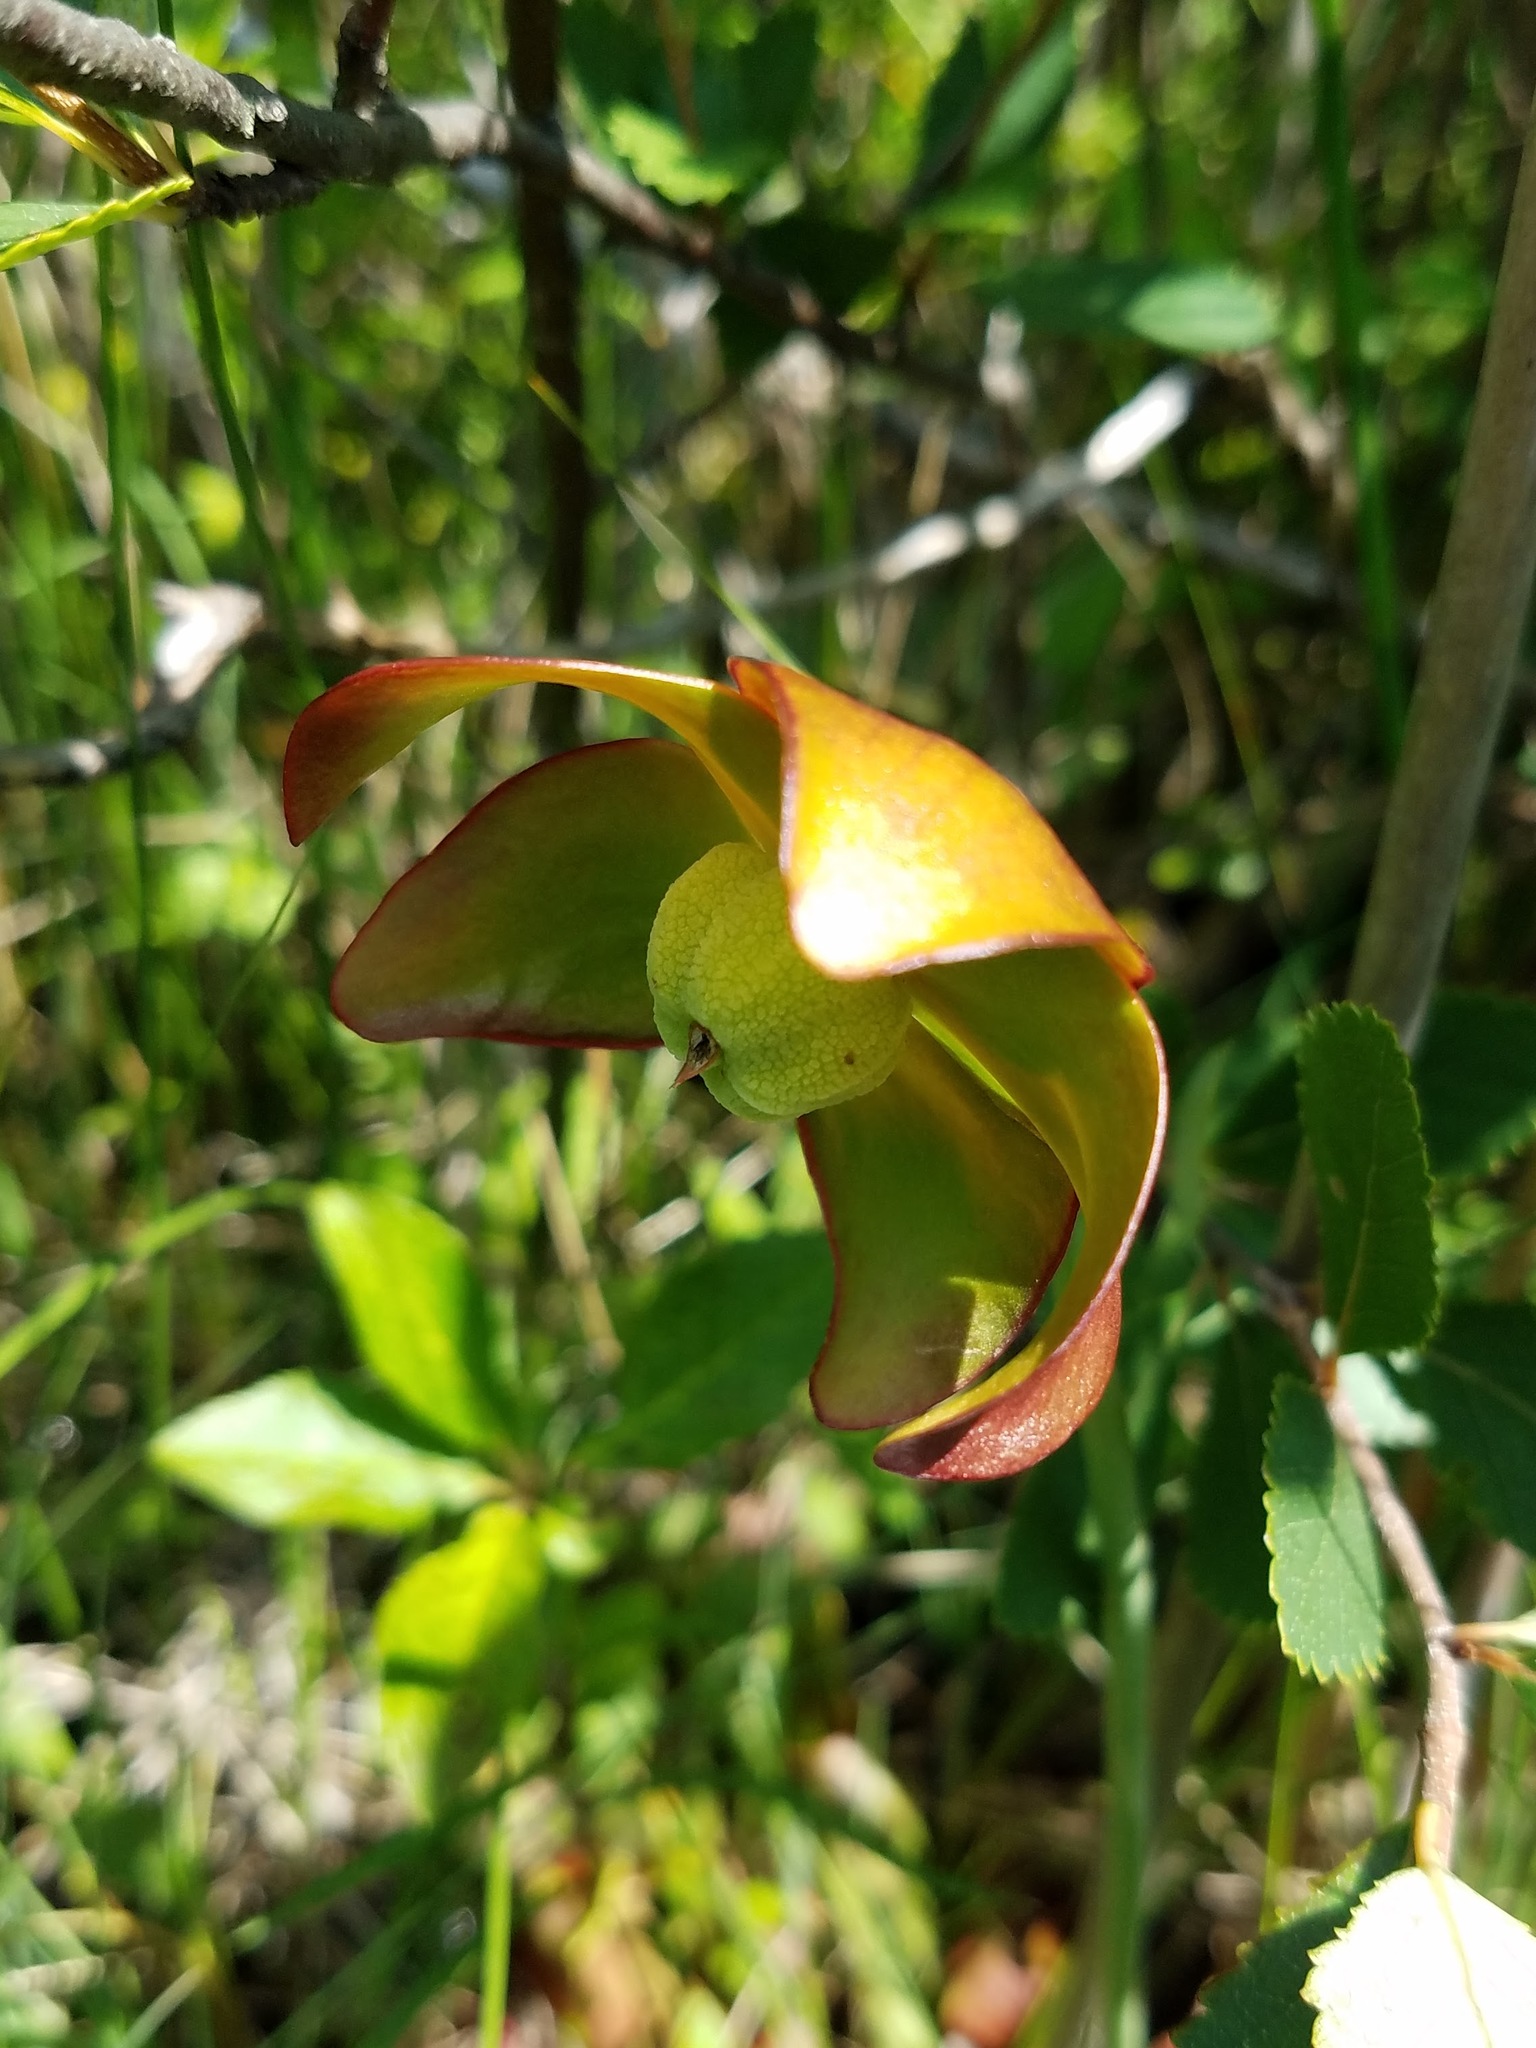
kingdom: Plantae
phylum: Tracheophyta
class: Magnoliopsida
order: Ericales
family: Sarraceniaceae
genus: Sarracenia
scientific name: Sarracenia purpurea
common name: Pitcherplant
